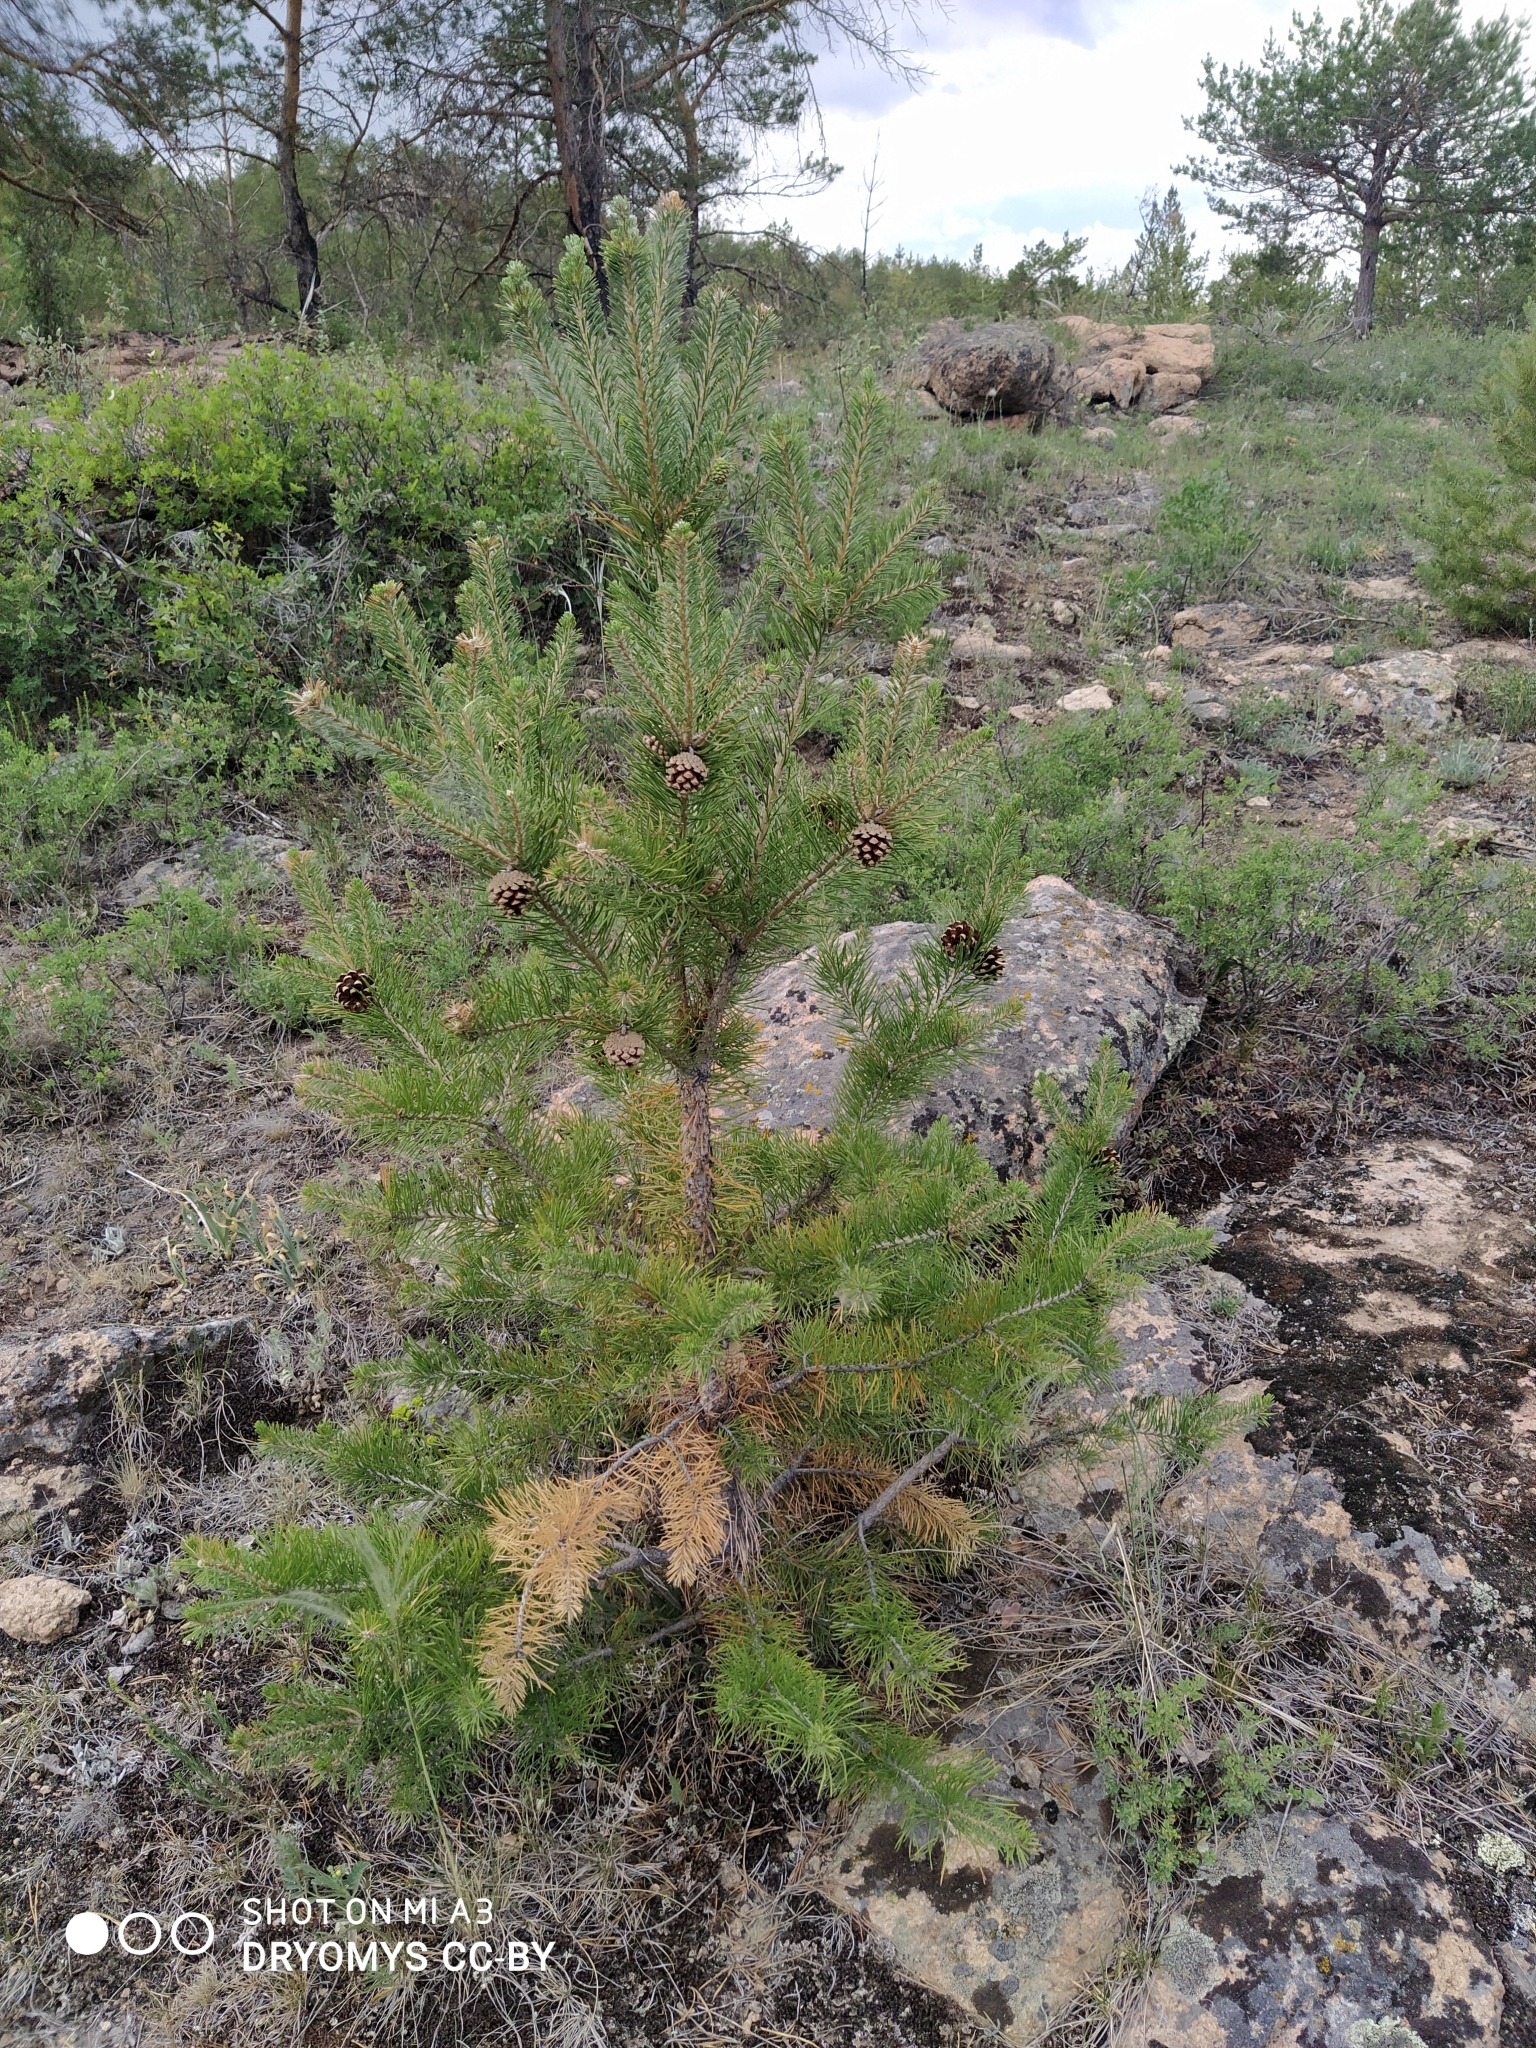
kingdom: Plantae
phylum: Tracheophyta
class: Pinopsida
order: Pinales
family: Pinaceae
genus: Pinus
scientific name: Pinus sylvestris
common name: Scots pine
